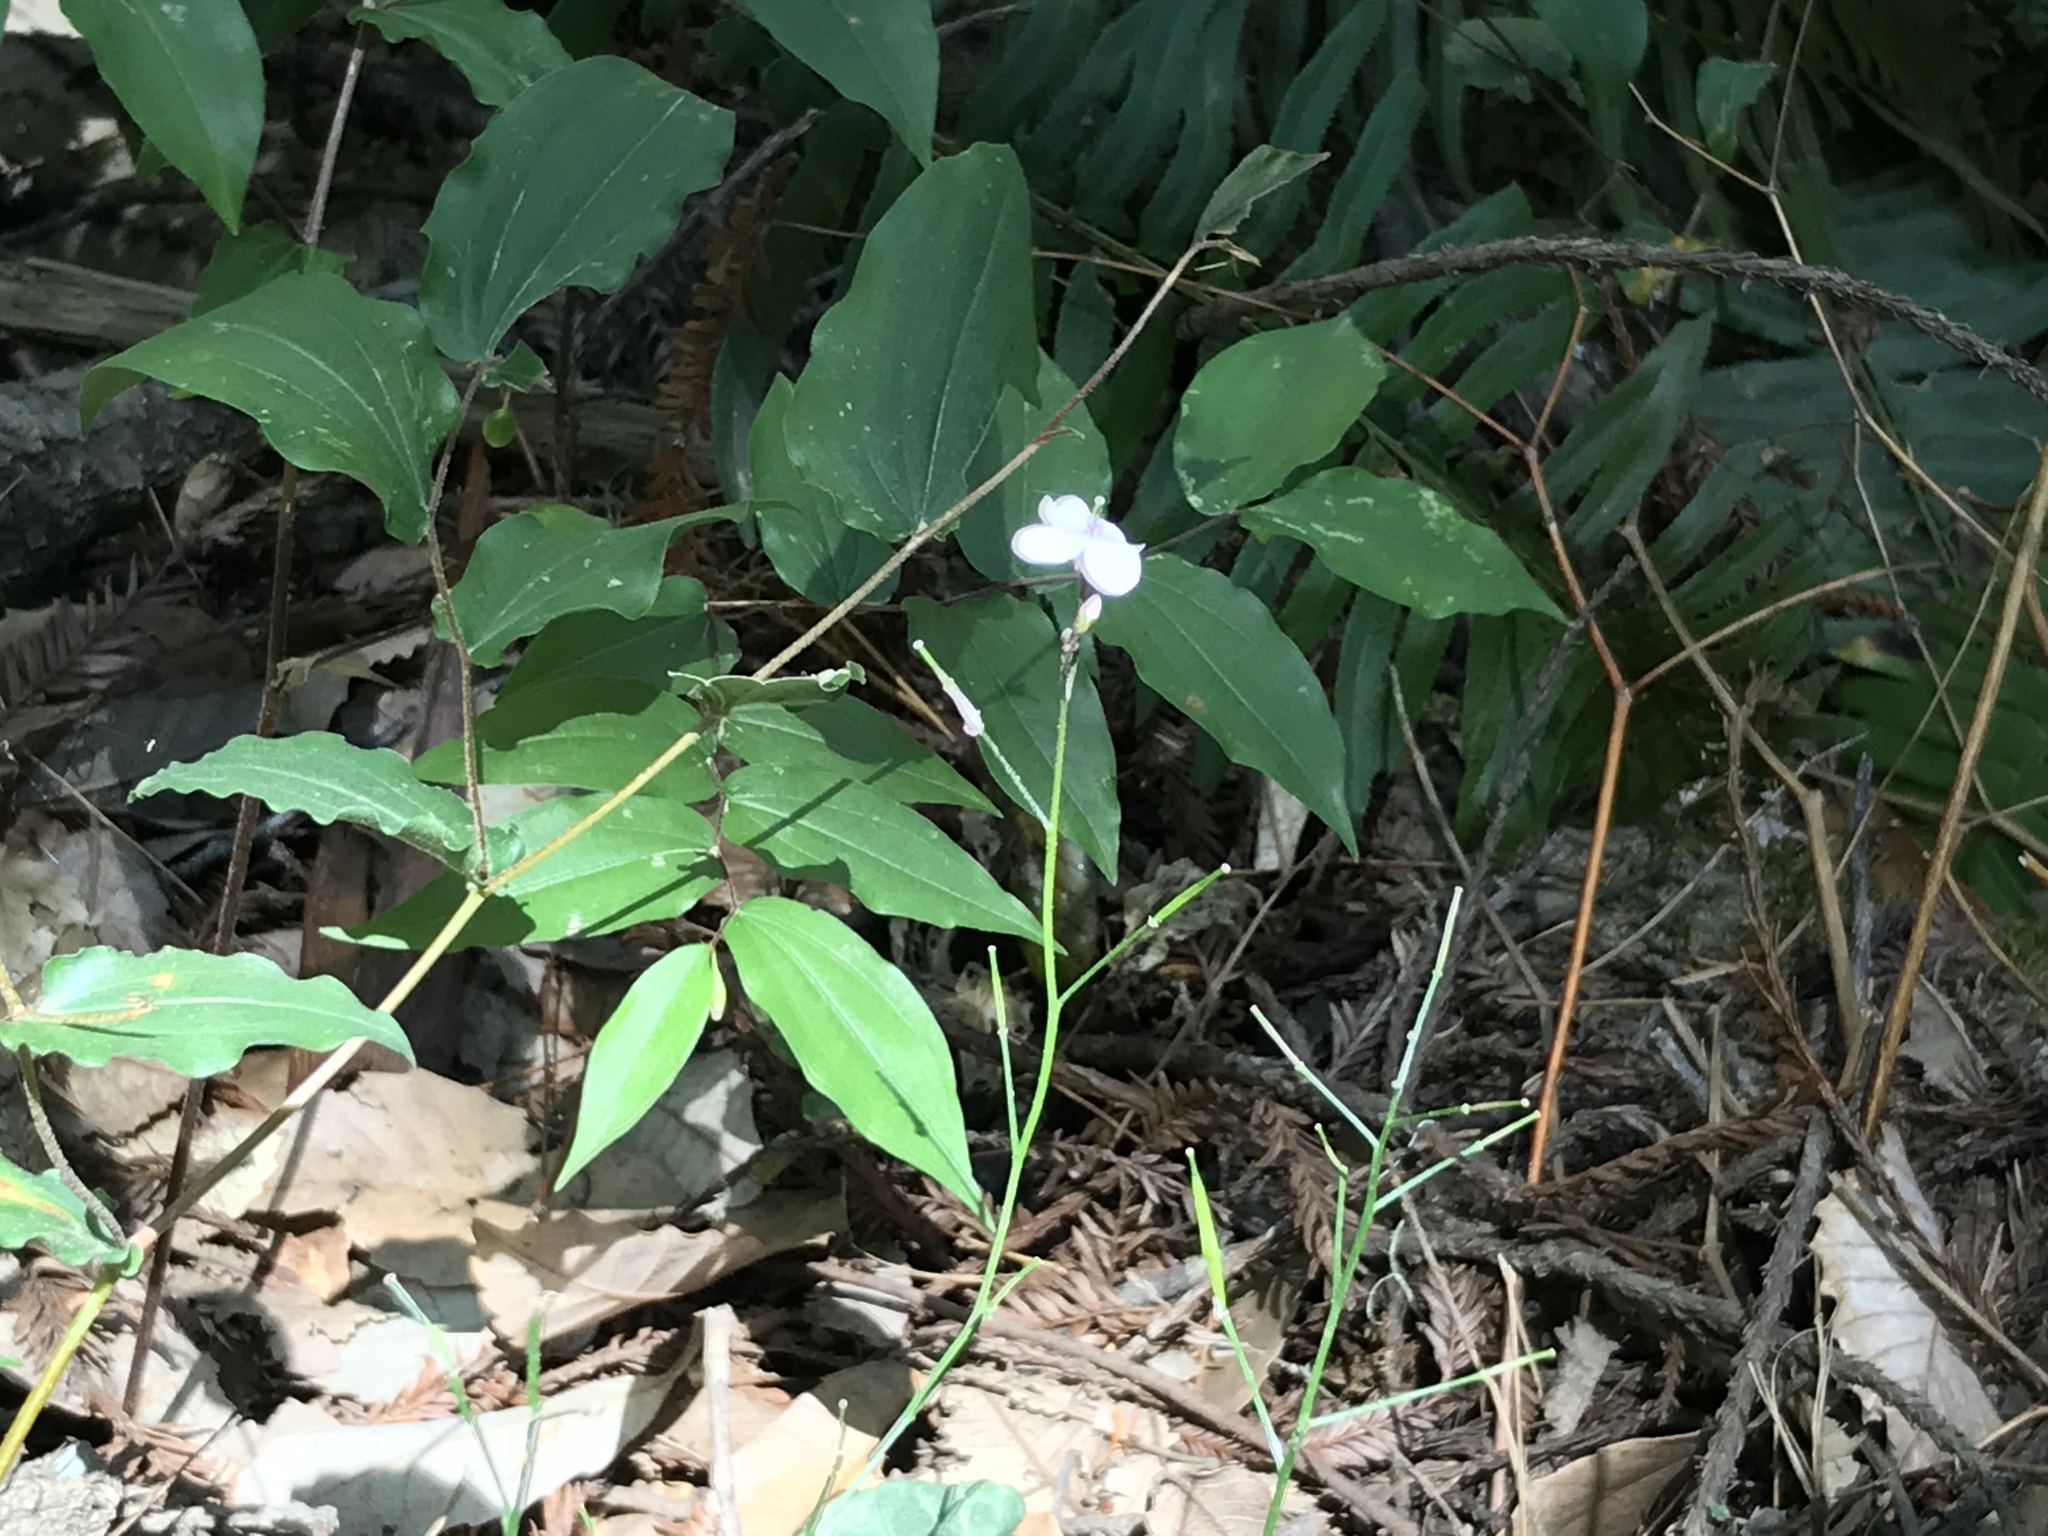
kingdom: Plantae
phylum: Tracheophyta
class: Magnoliopsida
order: Brassicales
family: Brassicaceae
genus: Cardamine
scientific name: Cardamine californica
